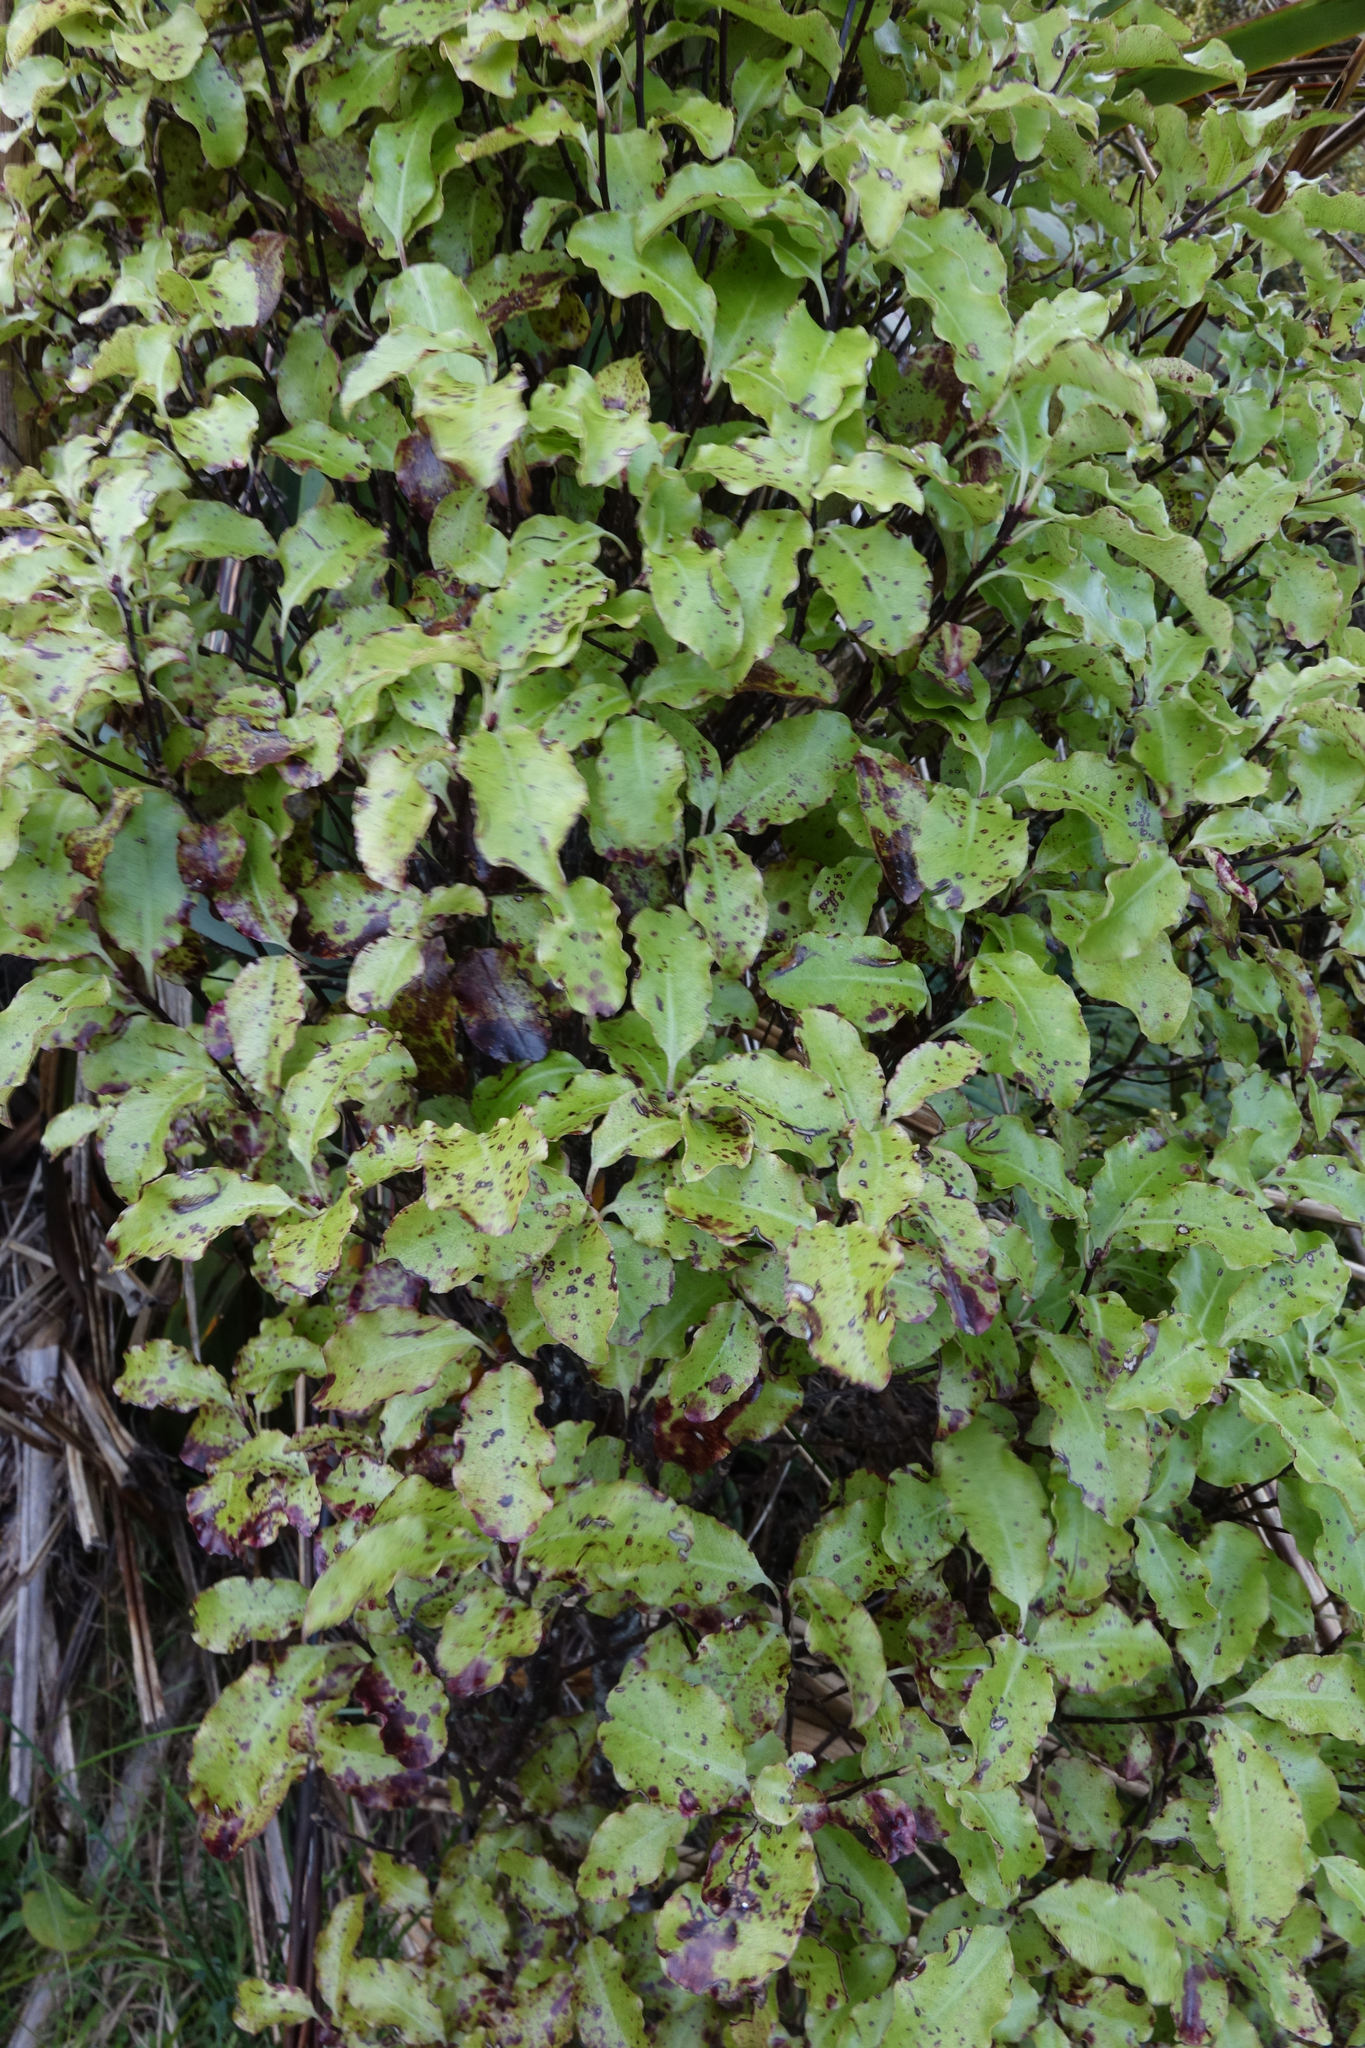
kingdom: Plantae
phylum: Tracheophyta
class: Magnoliopsida
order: Apiales
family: Pittosporaceae
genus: Pittosporum
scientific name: Pittosporum tenuifolium
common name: Kohuhu
